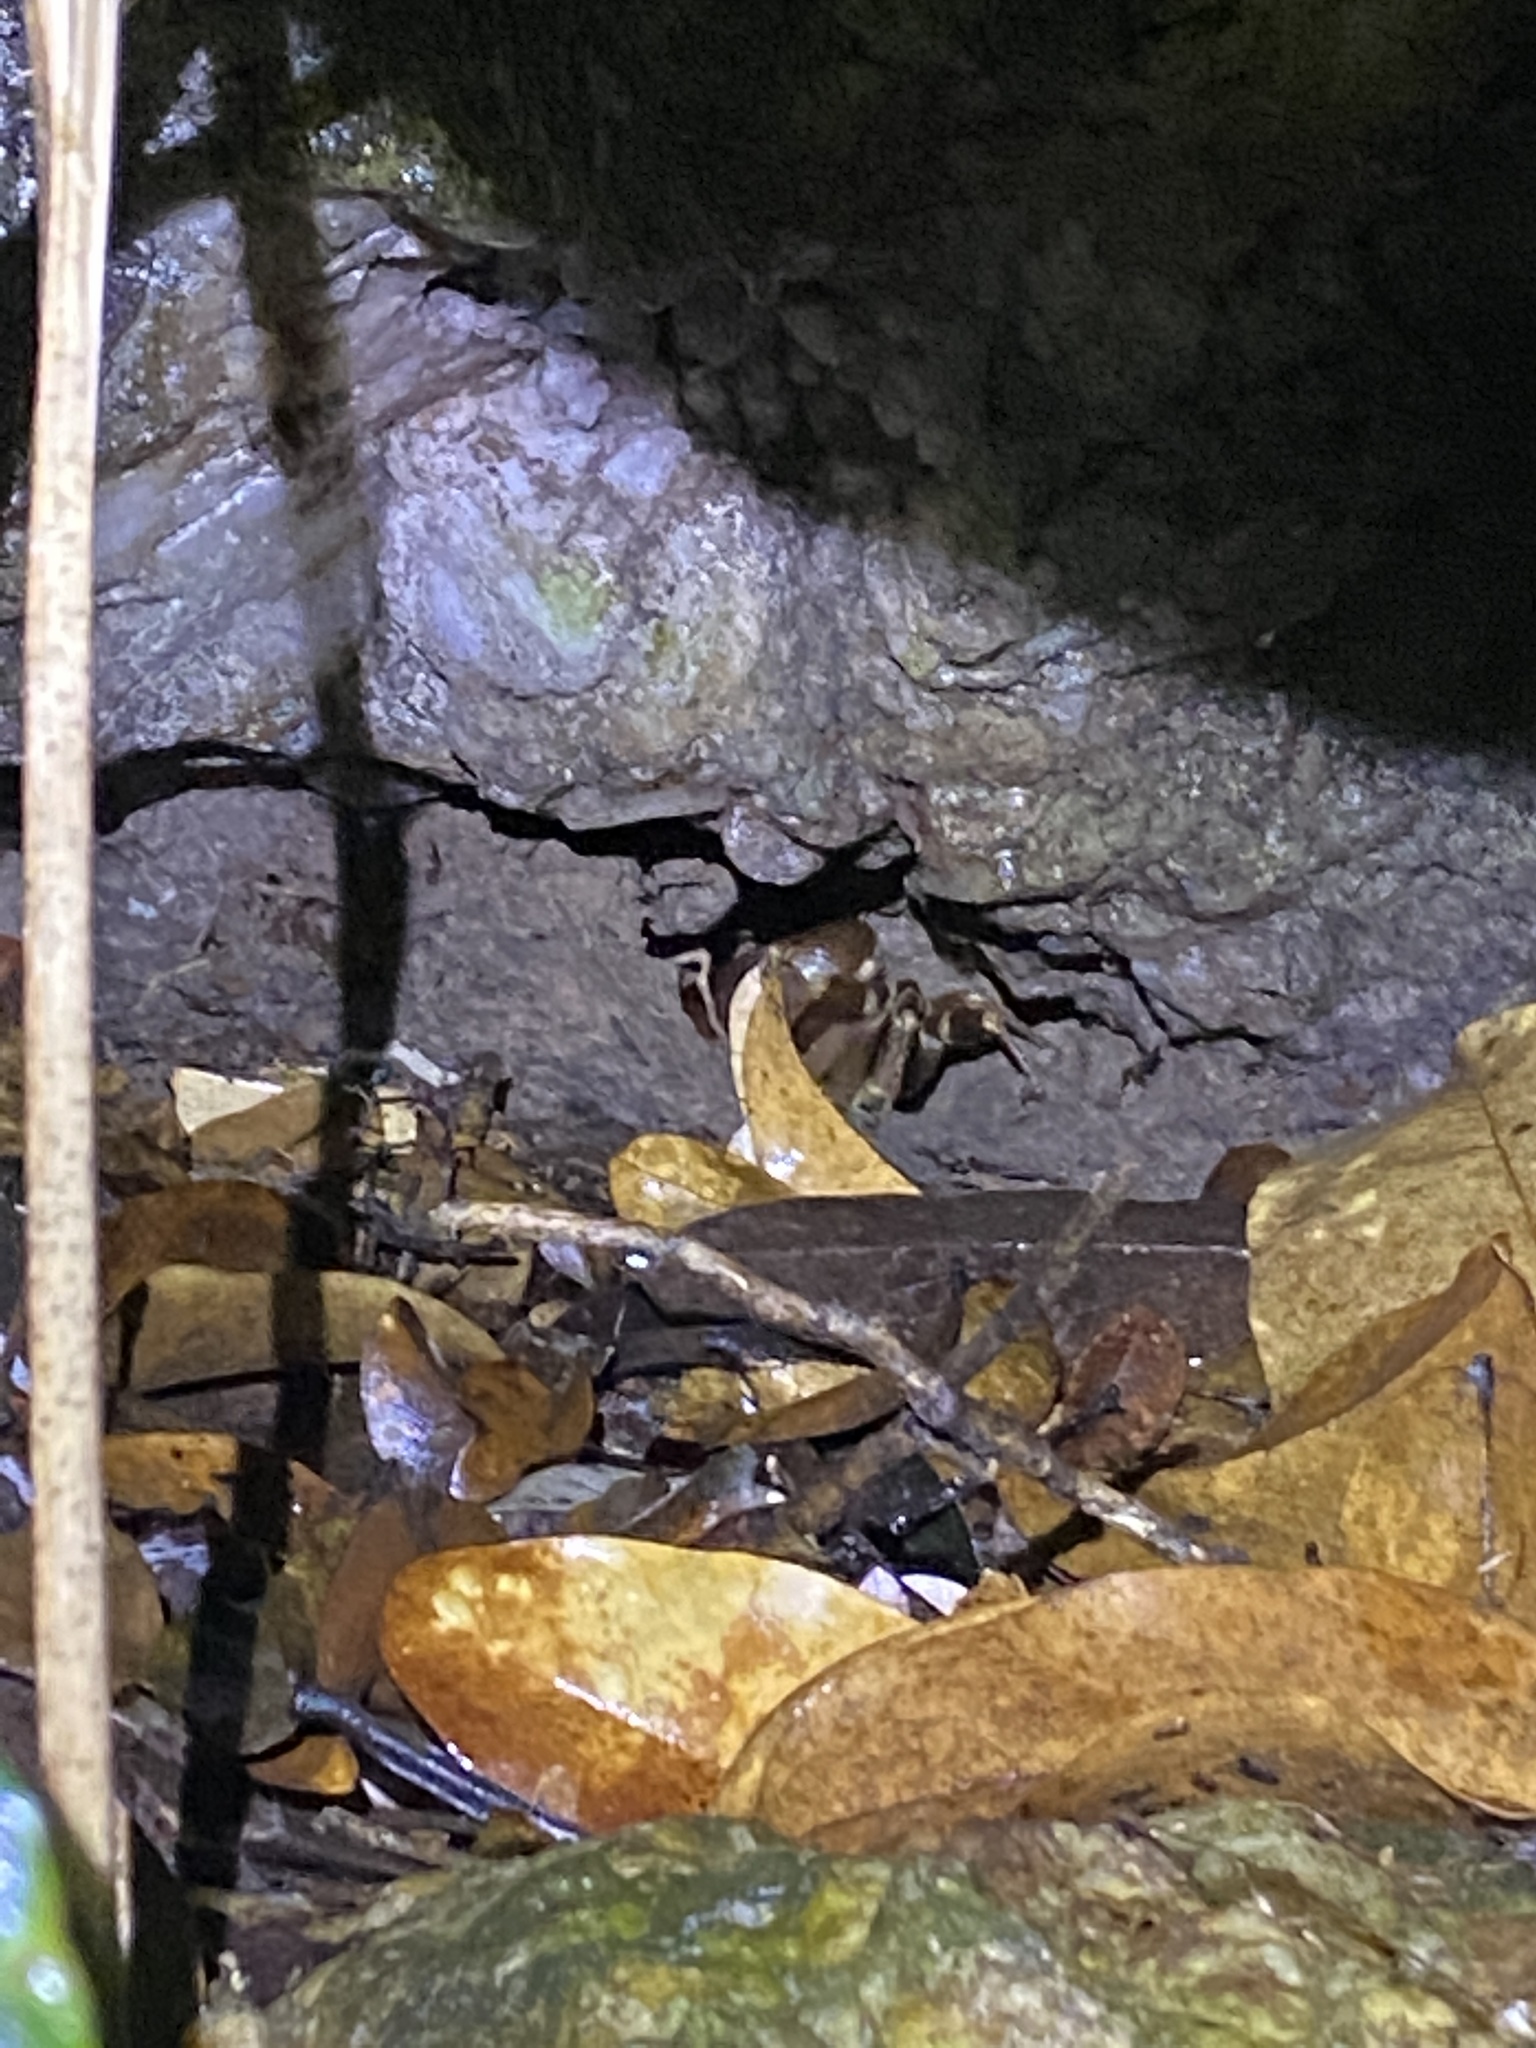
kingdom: Animalia
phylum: Arthropoda
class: Malacostraca
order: Decapoda
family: Pseudothelphusidae
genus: Rodriguezus
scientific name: Rodriguezus garmani
